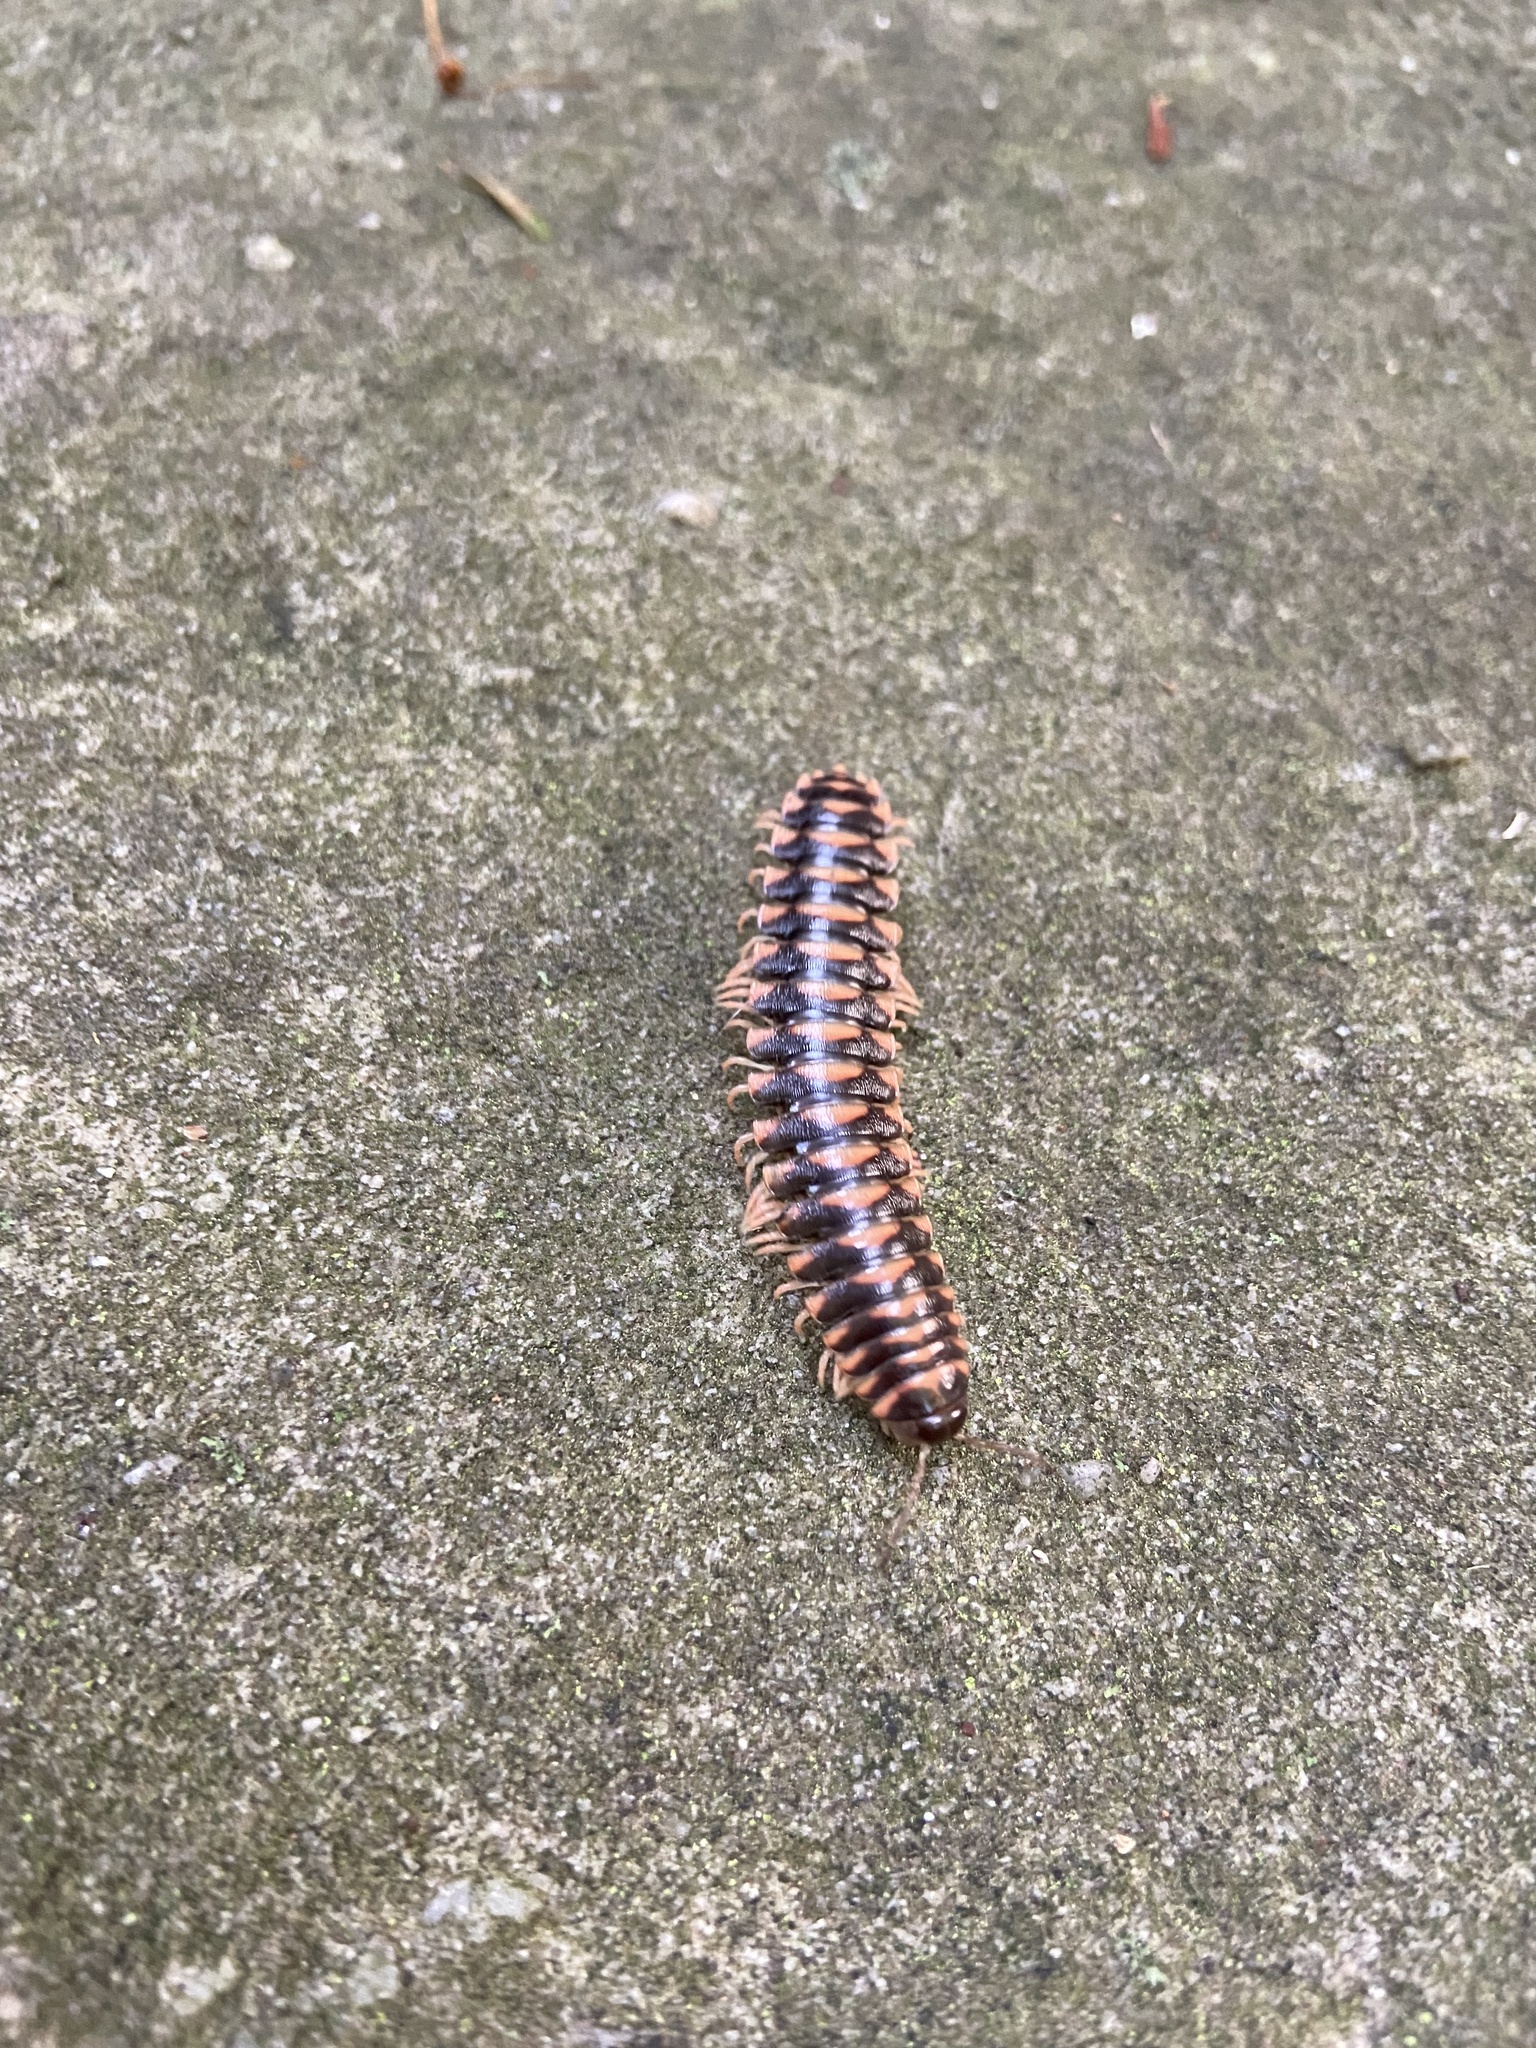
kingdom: Animalia
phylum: Arthropoda
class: Diplopoda
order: Polydesmida
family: Xystodesmidae
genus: Cherokia
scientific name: Cherokia georgiana
